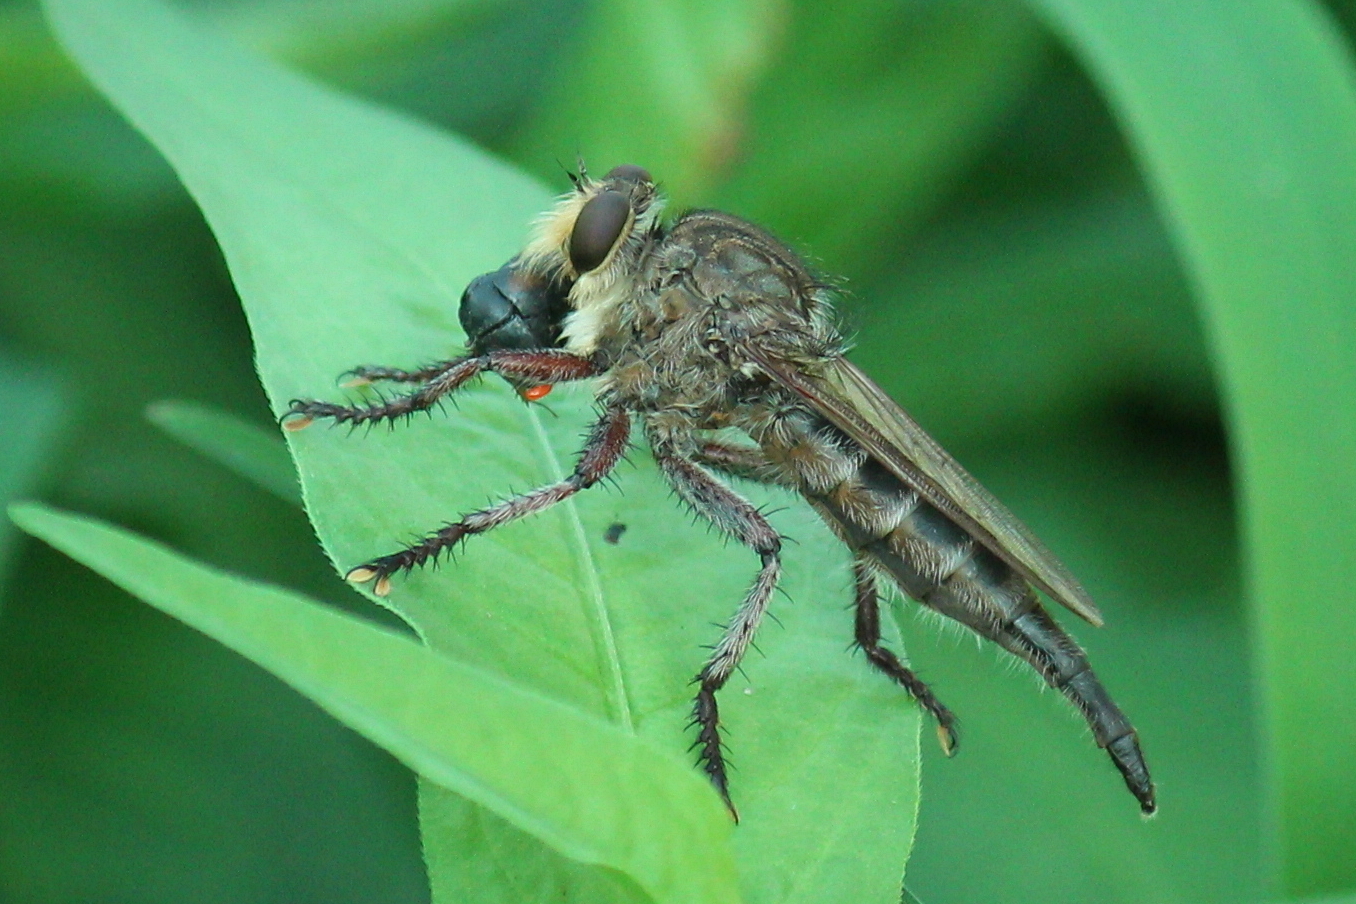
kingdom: Animalia
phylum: Arthropoda
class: Insecta
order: Diptera
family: Asilidae
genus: Promachus
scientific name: Promachus bastardii
